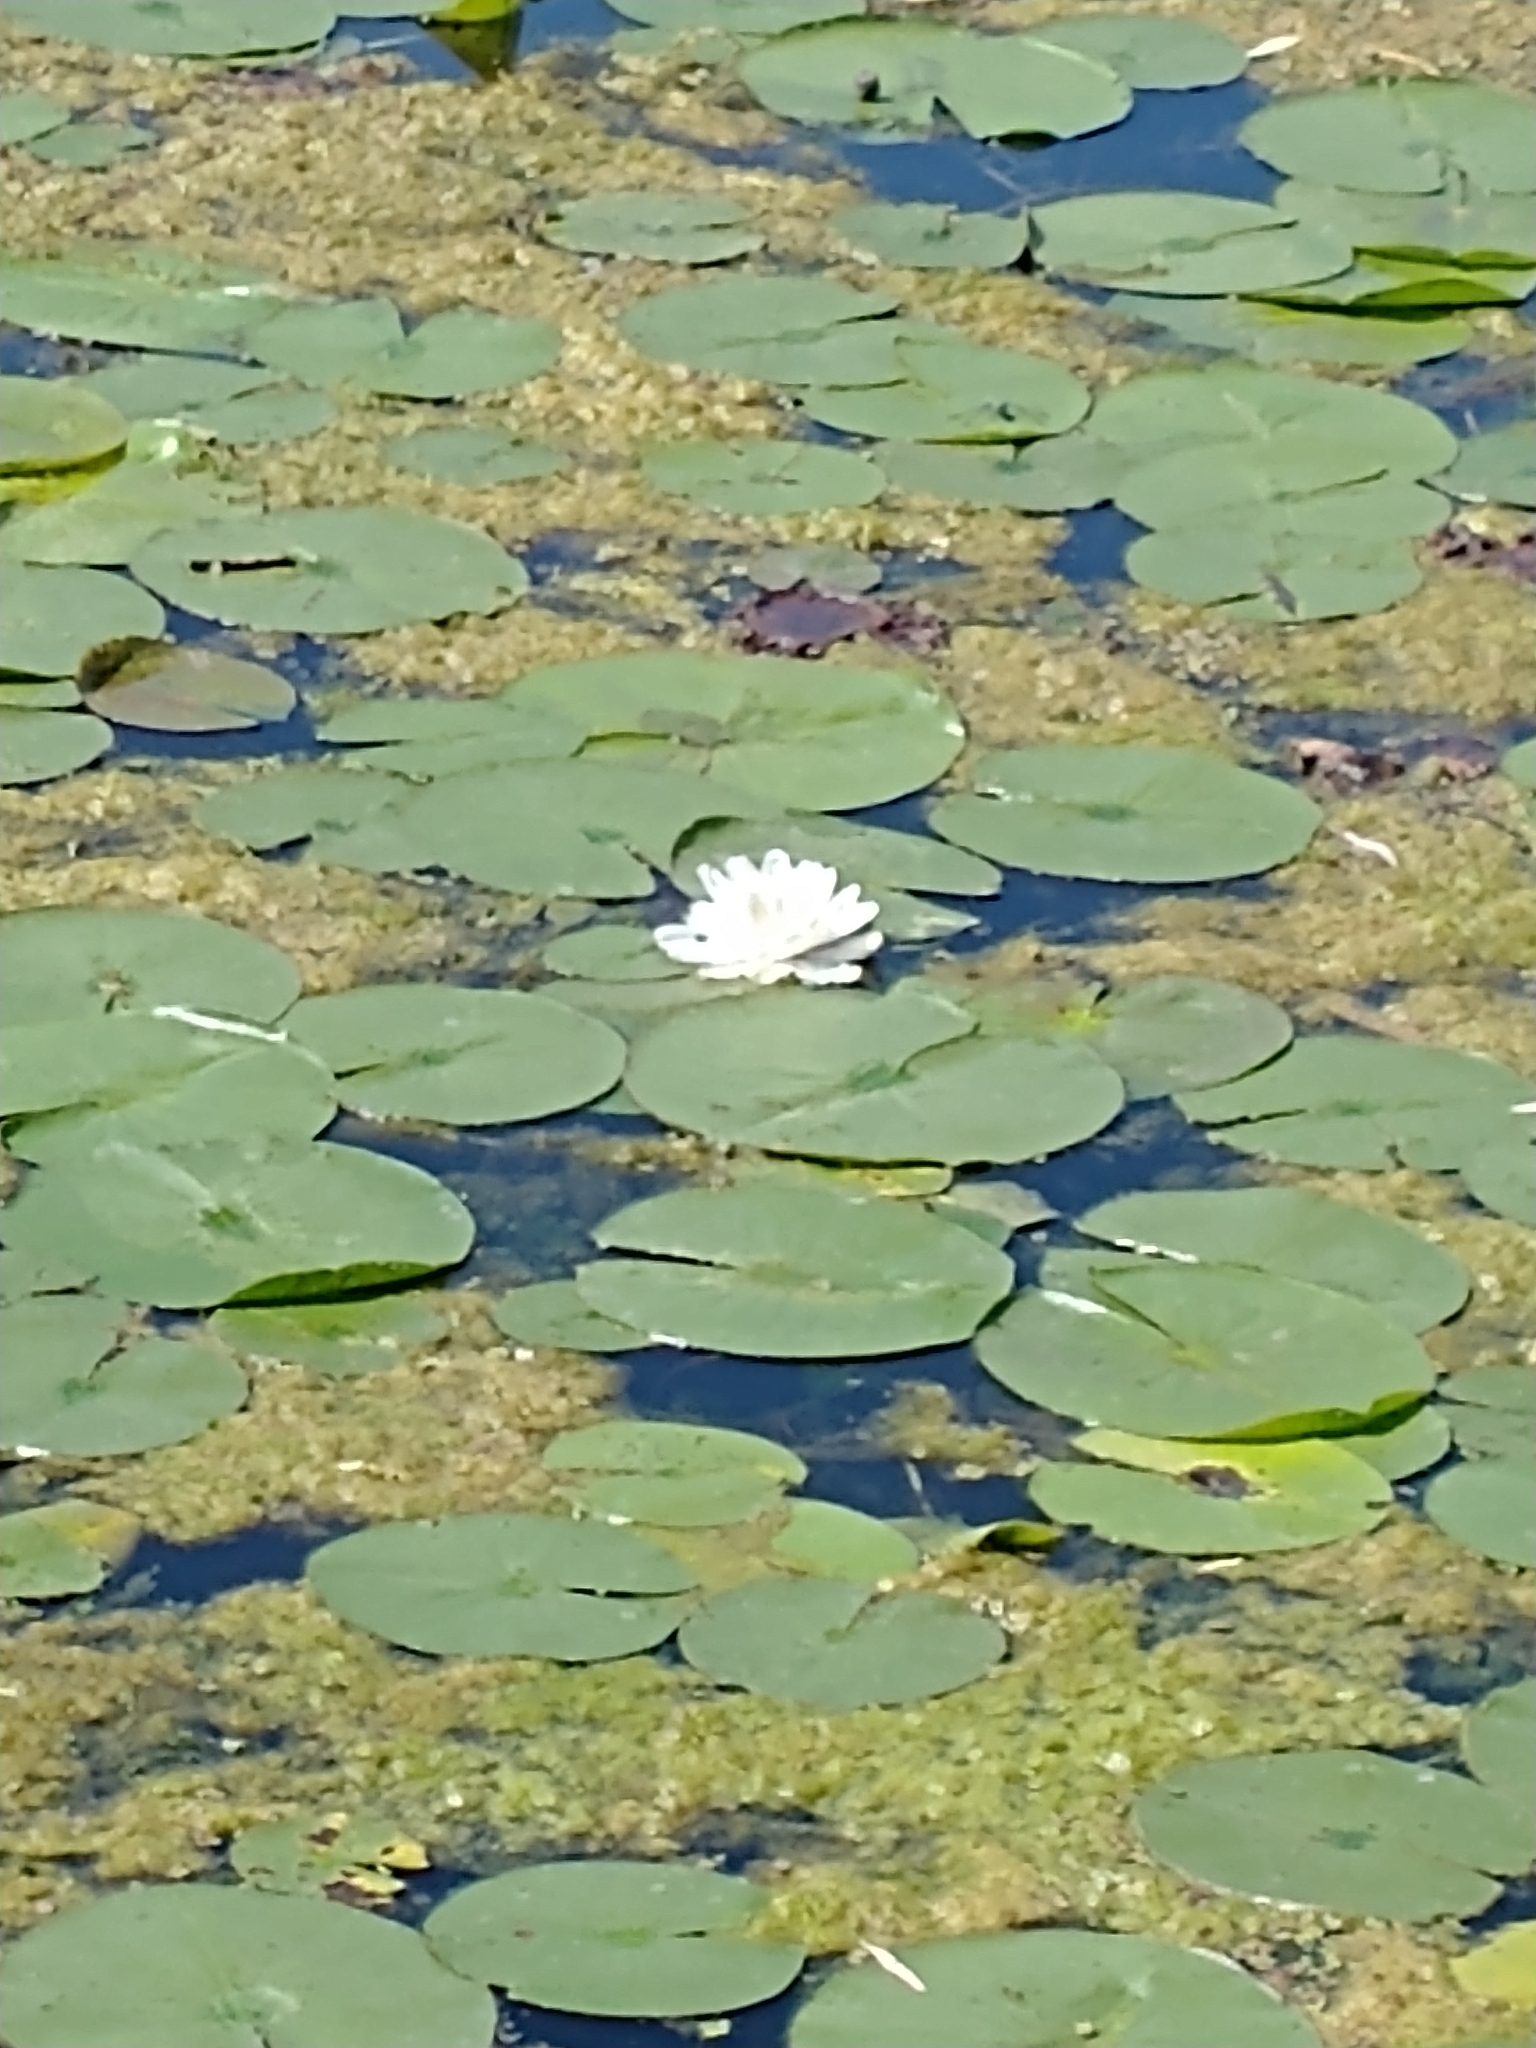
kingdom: Plantae
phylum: Tracheophyta
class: Magnoliopsida
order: Nymphaeales
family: Nymphaeaceae
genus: Nymphaea
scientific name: Nymphaea odorata
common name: Fragrant water-lily
